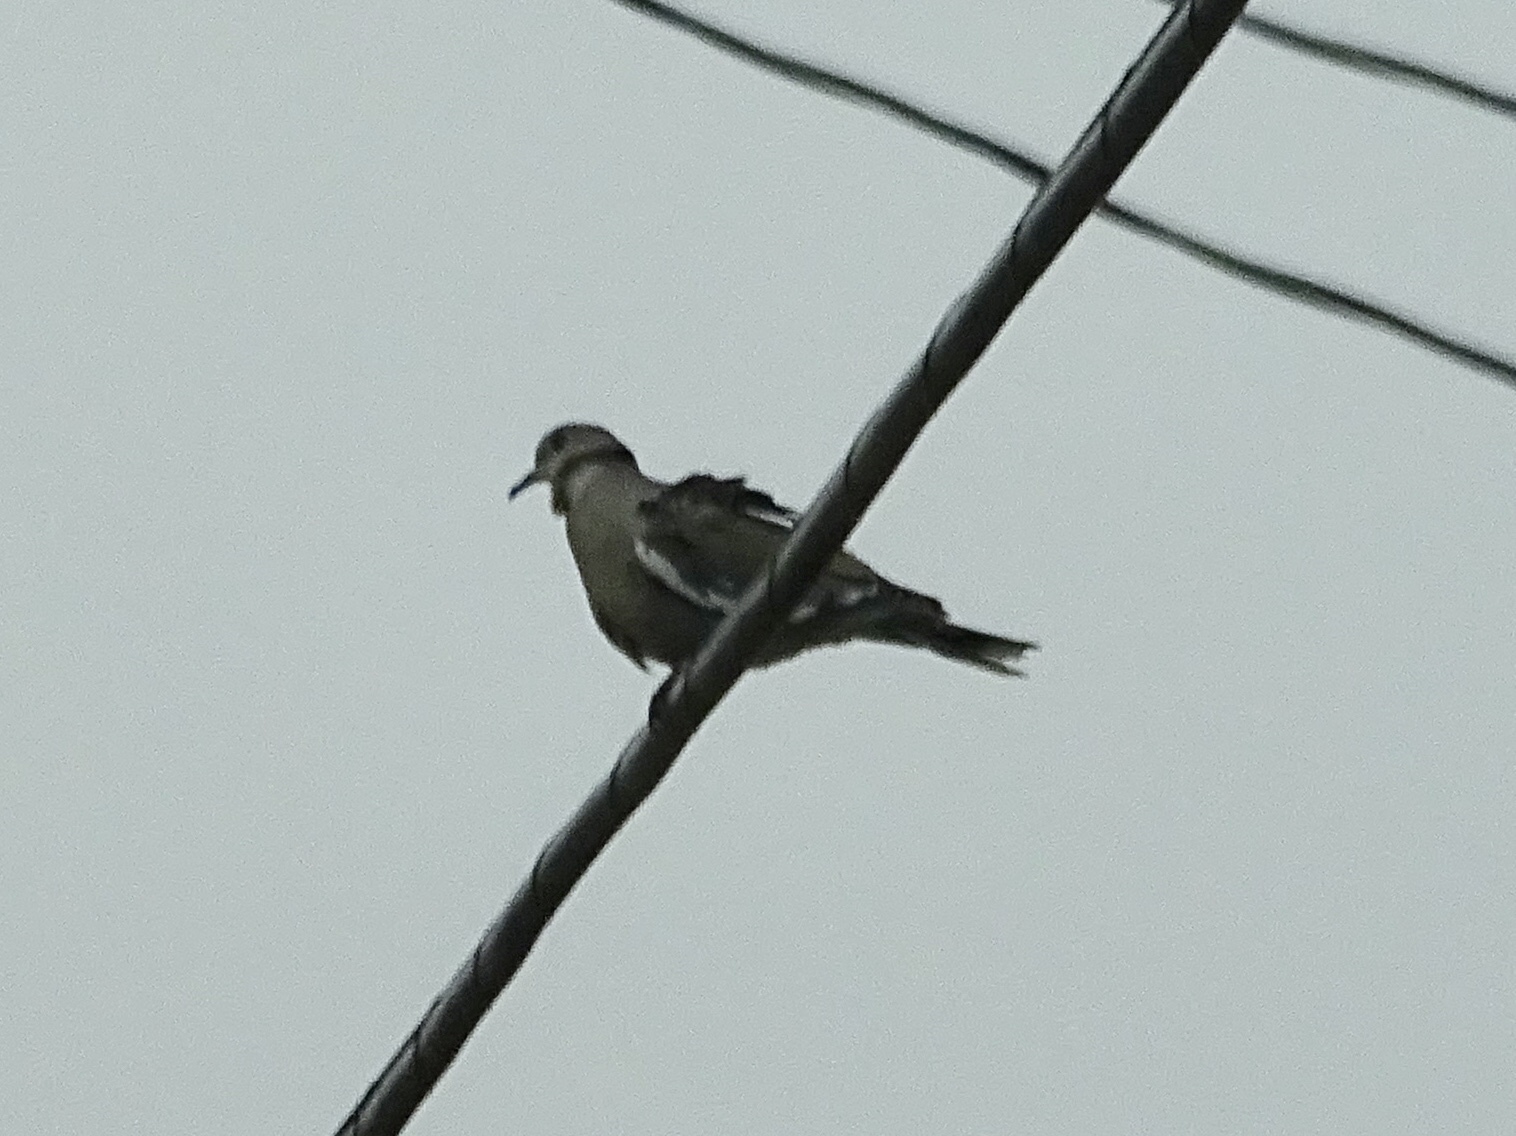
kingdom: Animalia
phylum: Chordata
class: Aves
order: Columbiformes
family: Columbidae
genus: Zenaida
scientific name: Zenaida asiatica
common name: White-winged dove
